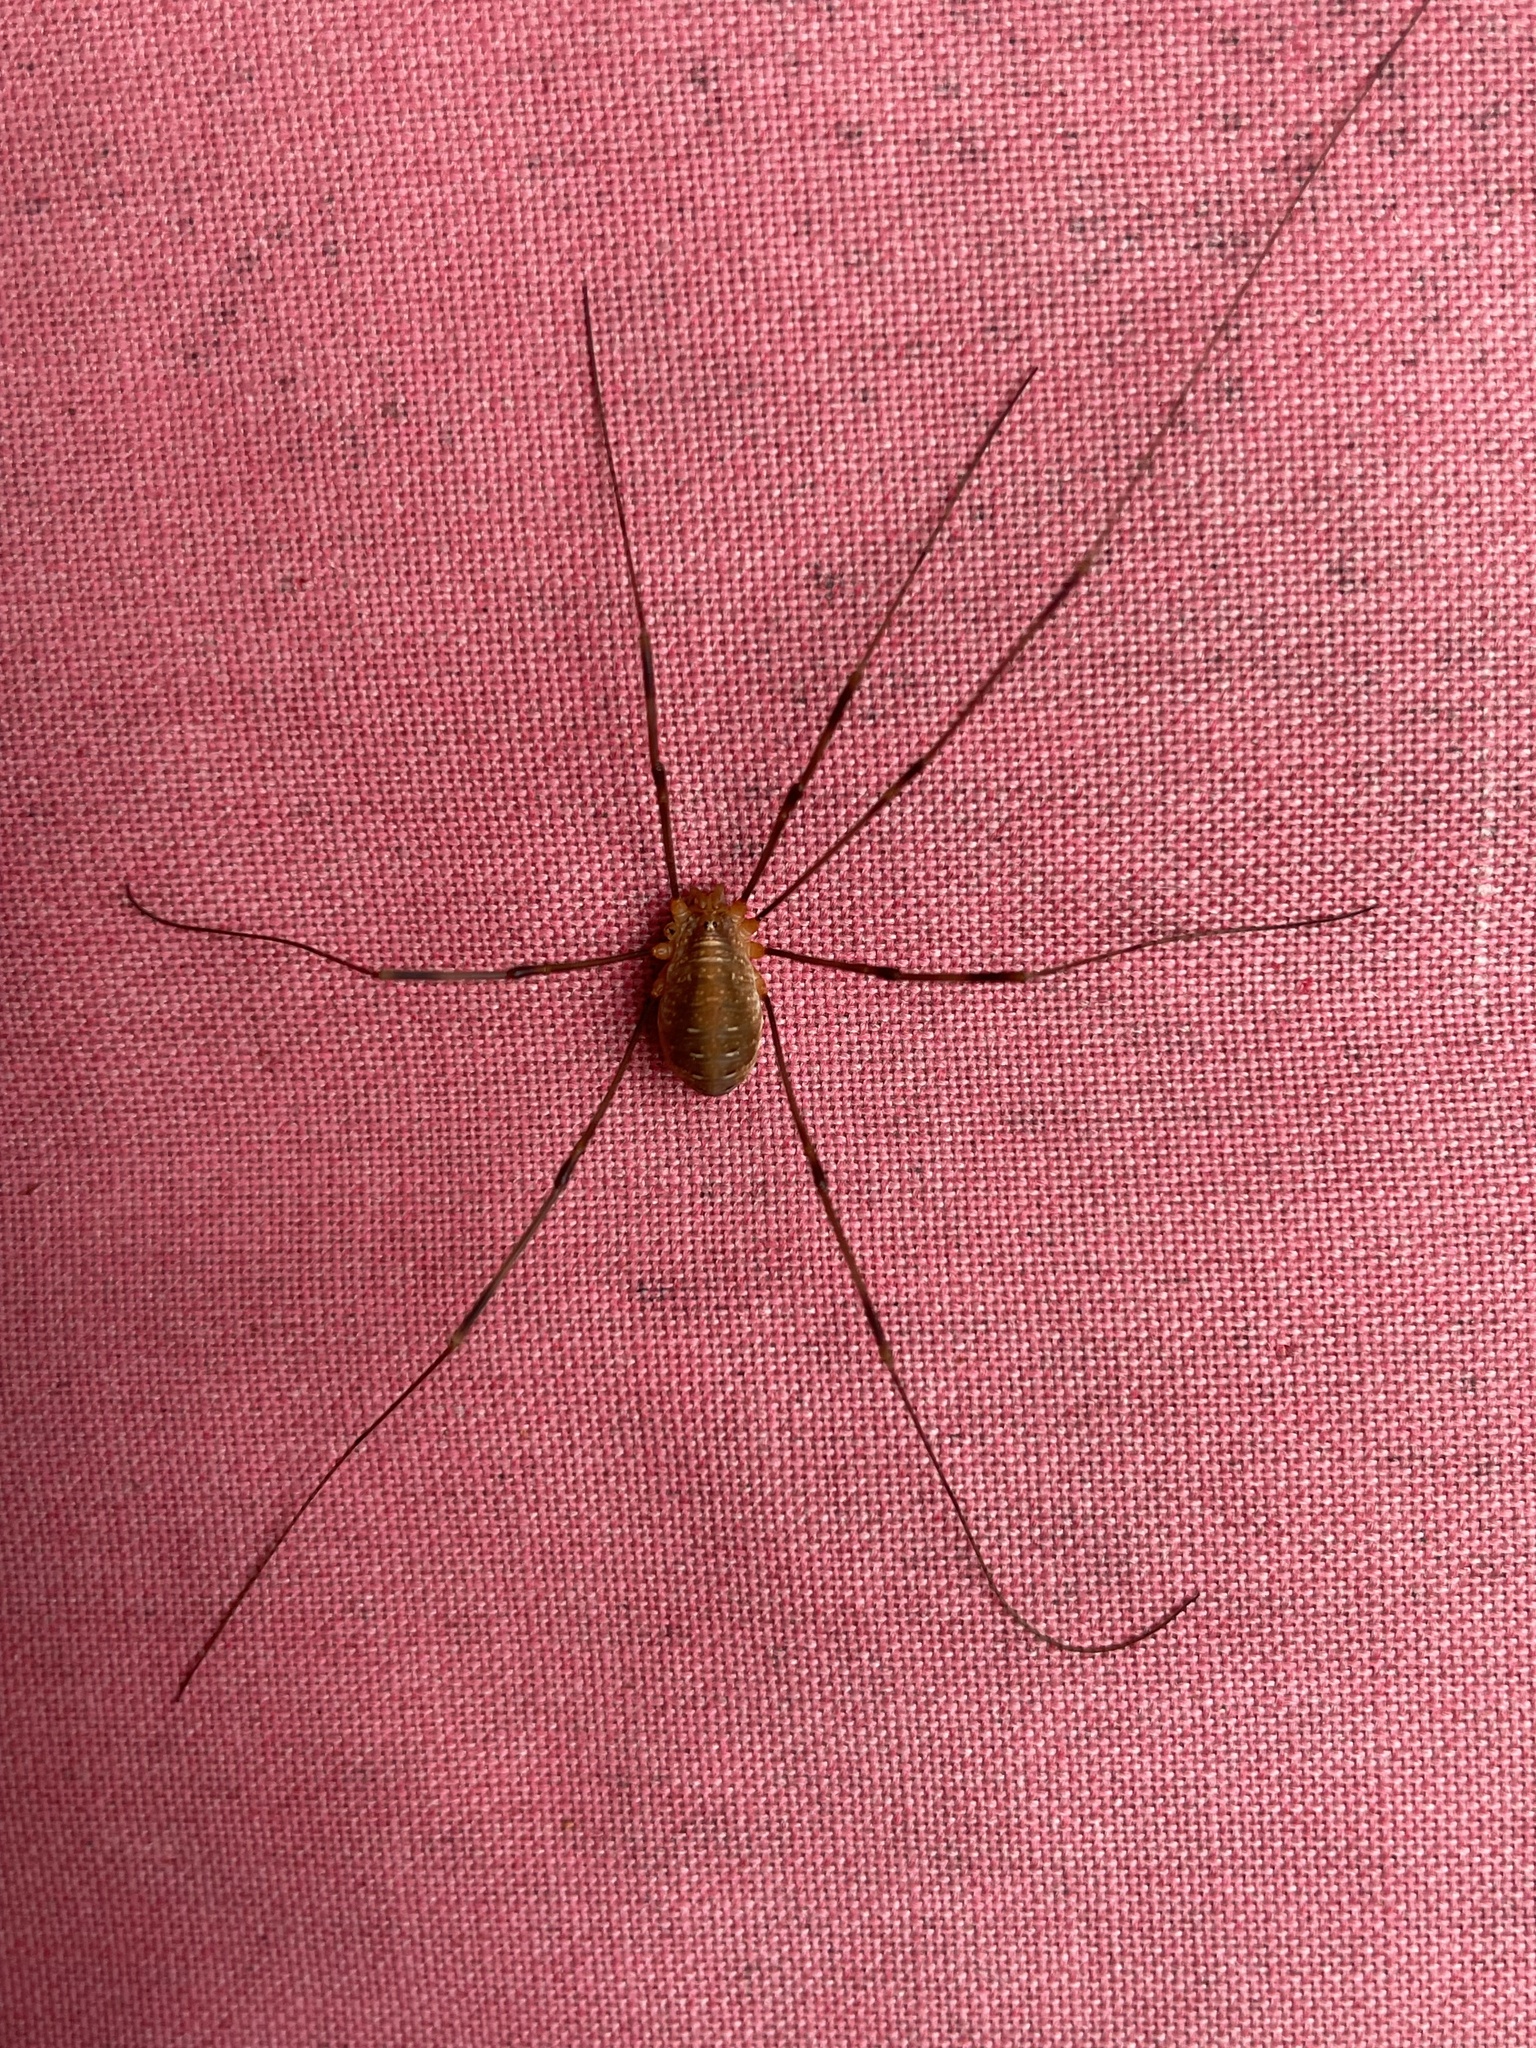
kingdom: Animalia
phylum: Arthropoda
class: Arachnida
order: Opiliones
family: Phalangiidae
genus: Opilio
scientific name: Opilio canestrinii
